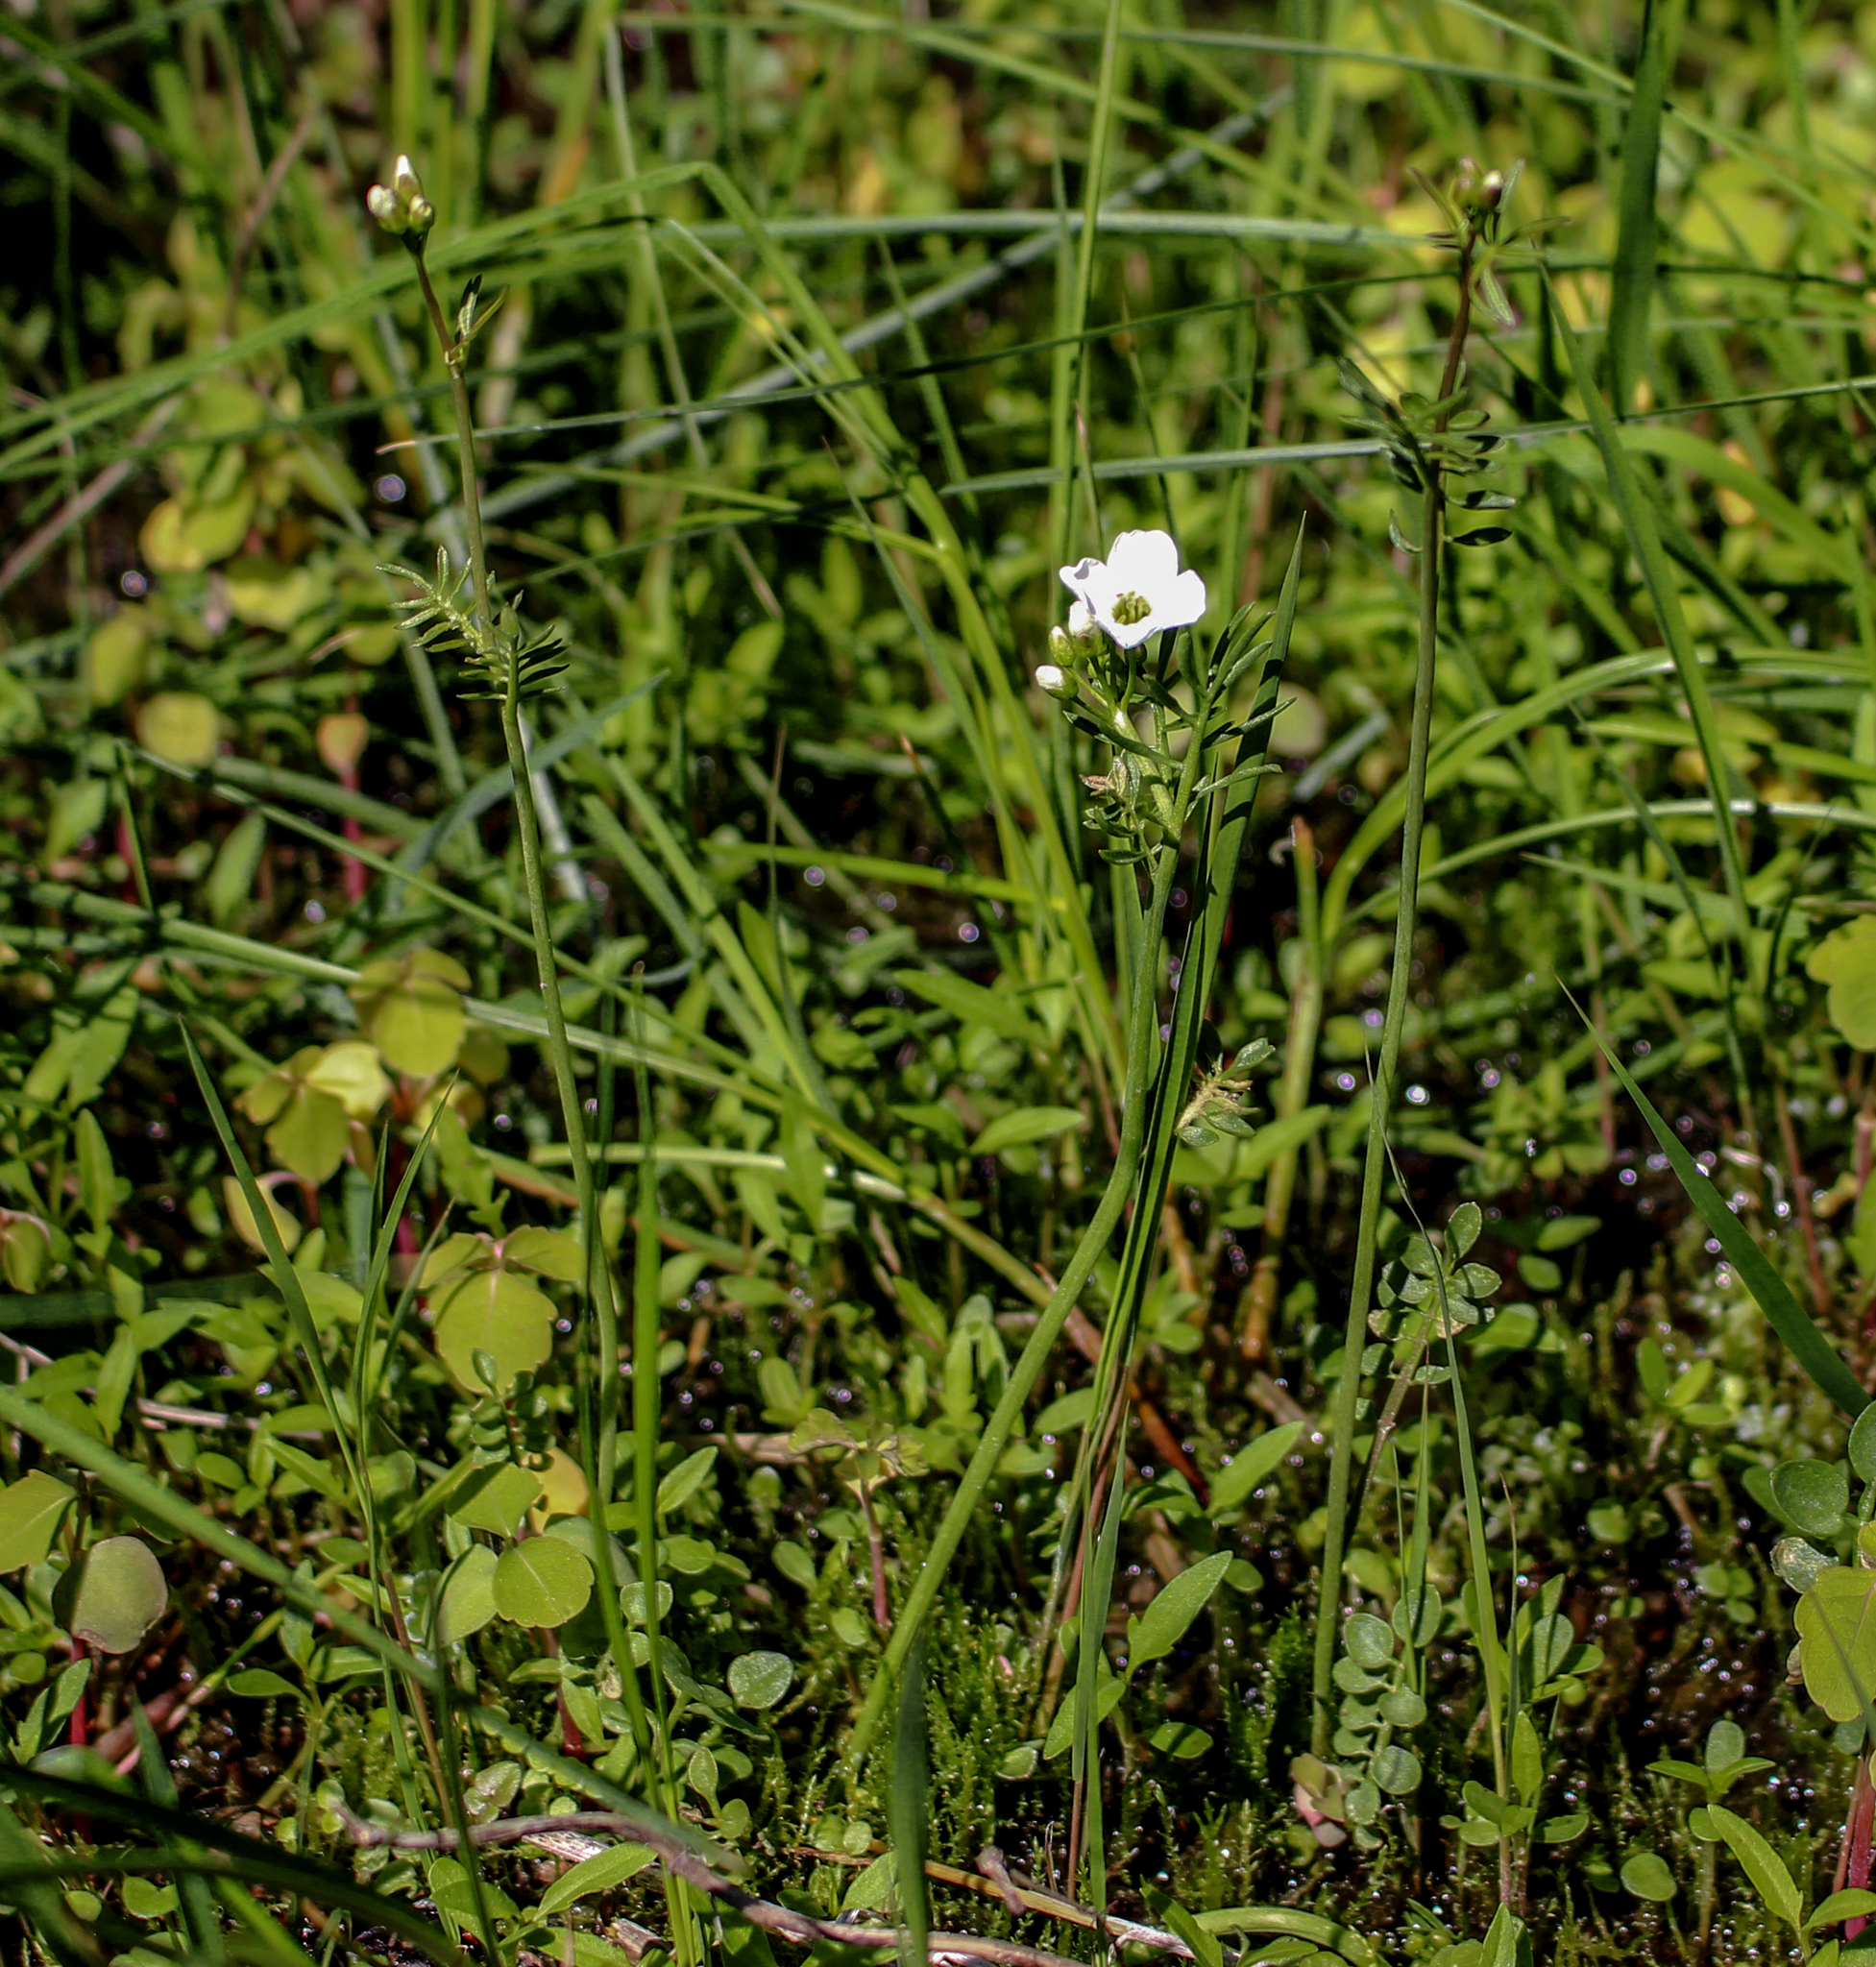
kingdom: Plantae
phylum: Tracheophyta
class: Magnoliopsida
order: Brassicales
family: Brassicaceae
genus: Cardamine
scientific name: Cardamine pratensis
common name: Cuckoo flower
